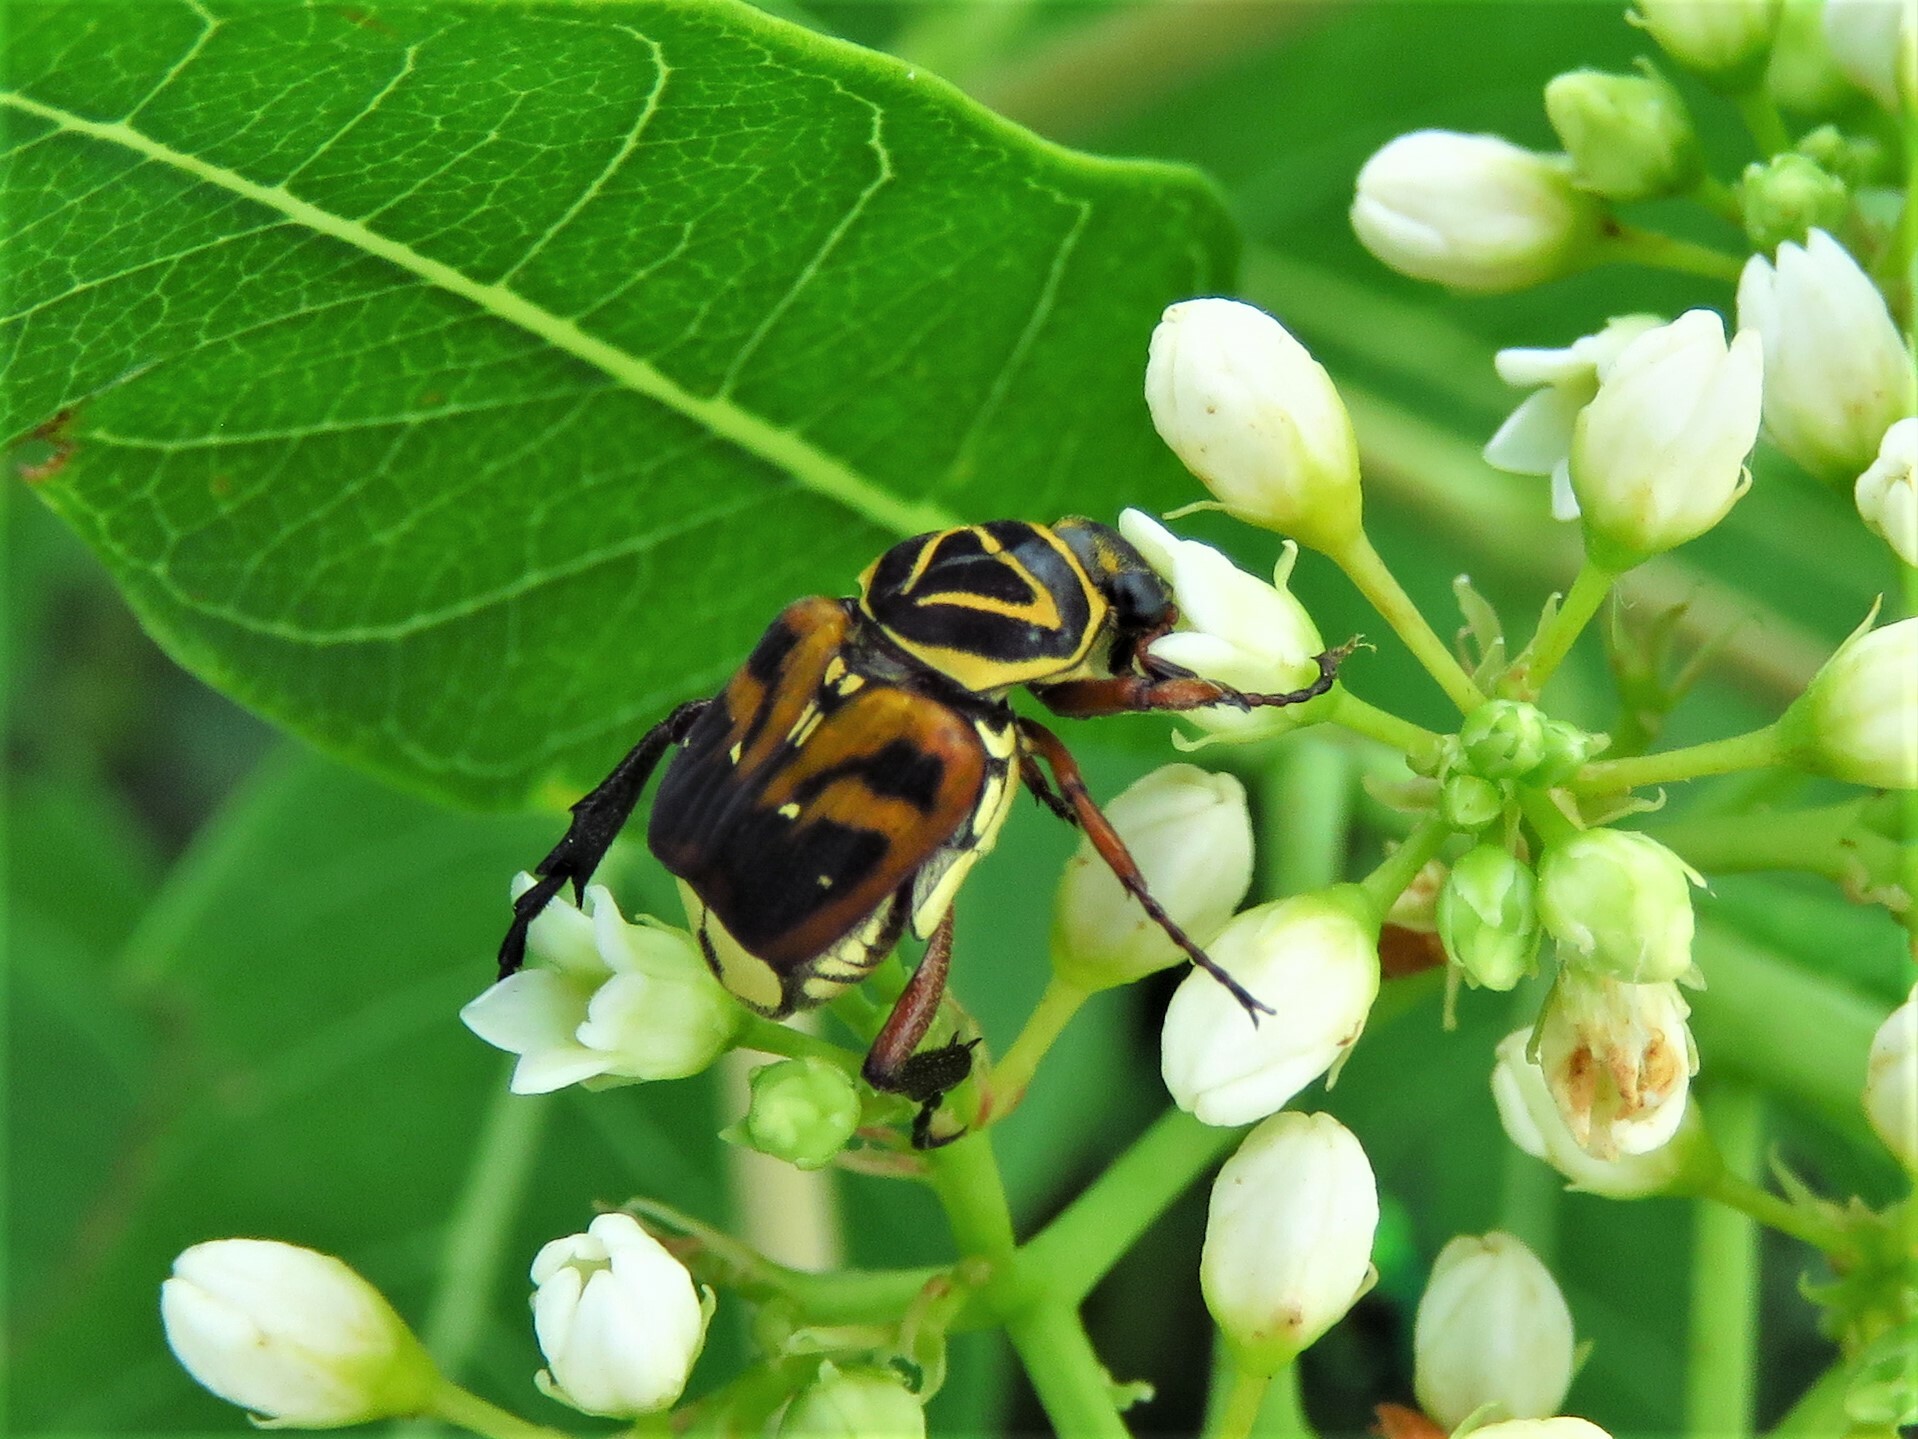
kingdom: Animalia
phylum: Arthropoda
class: Insecta
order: Coleoptera
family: Scarabaeidae
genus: Trigonopeltastes
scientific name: Trigonopeltastes delta
